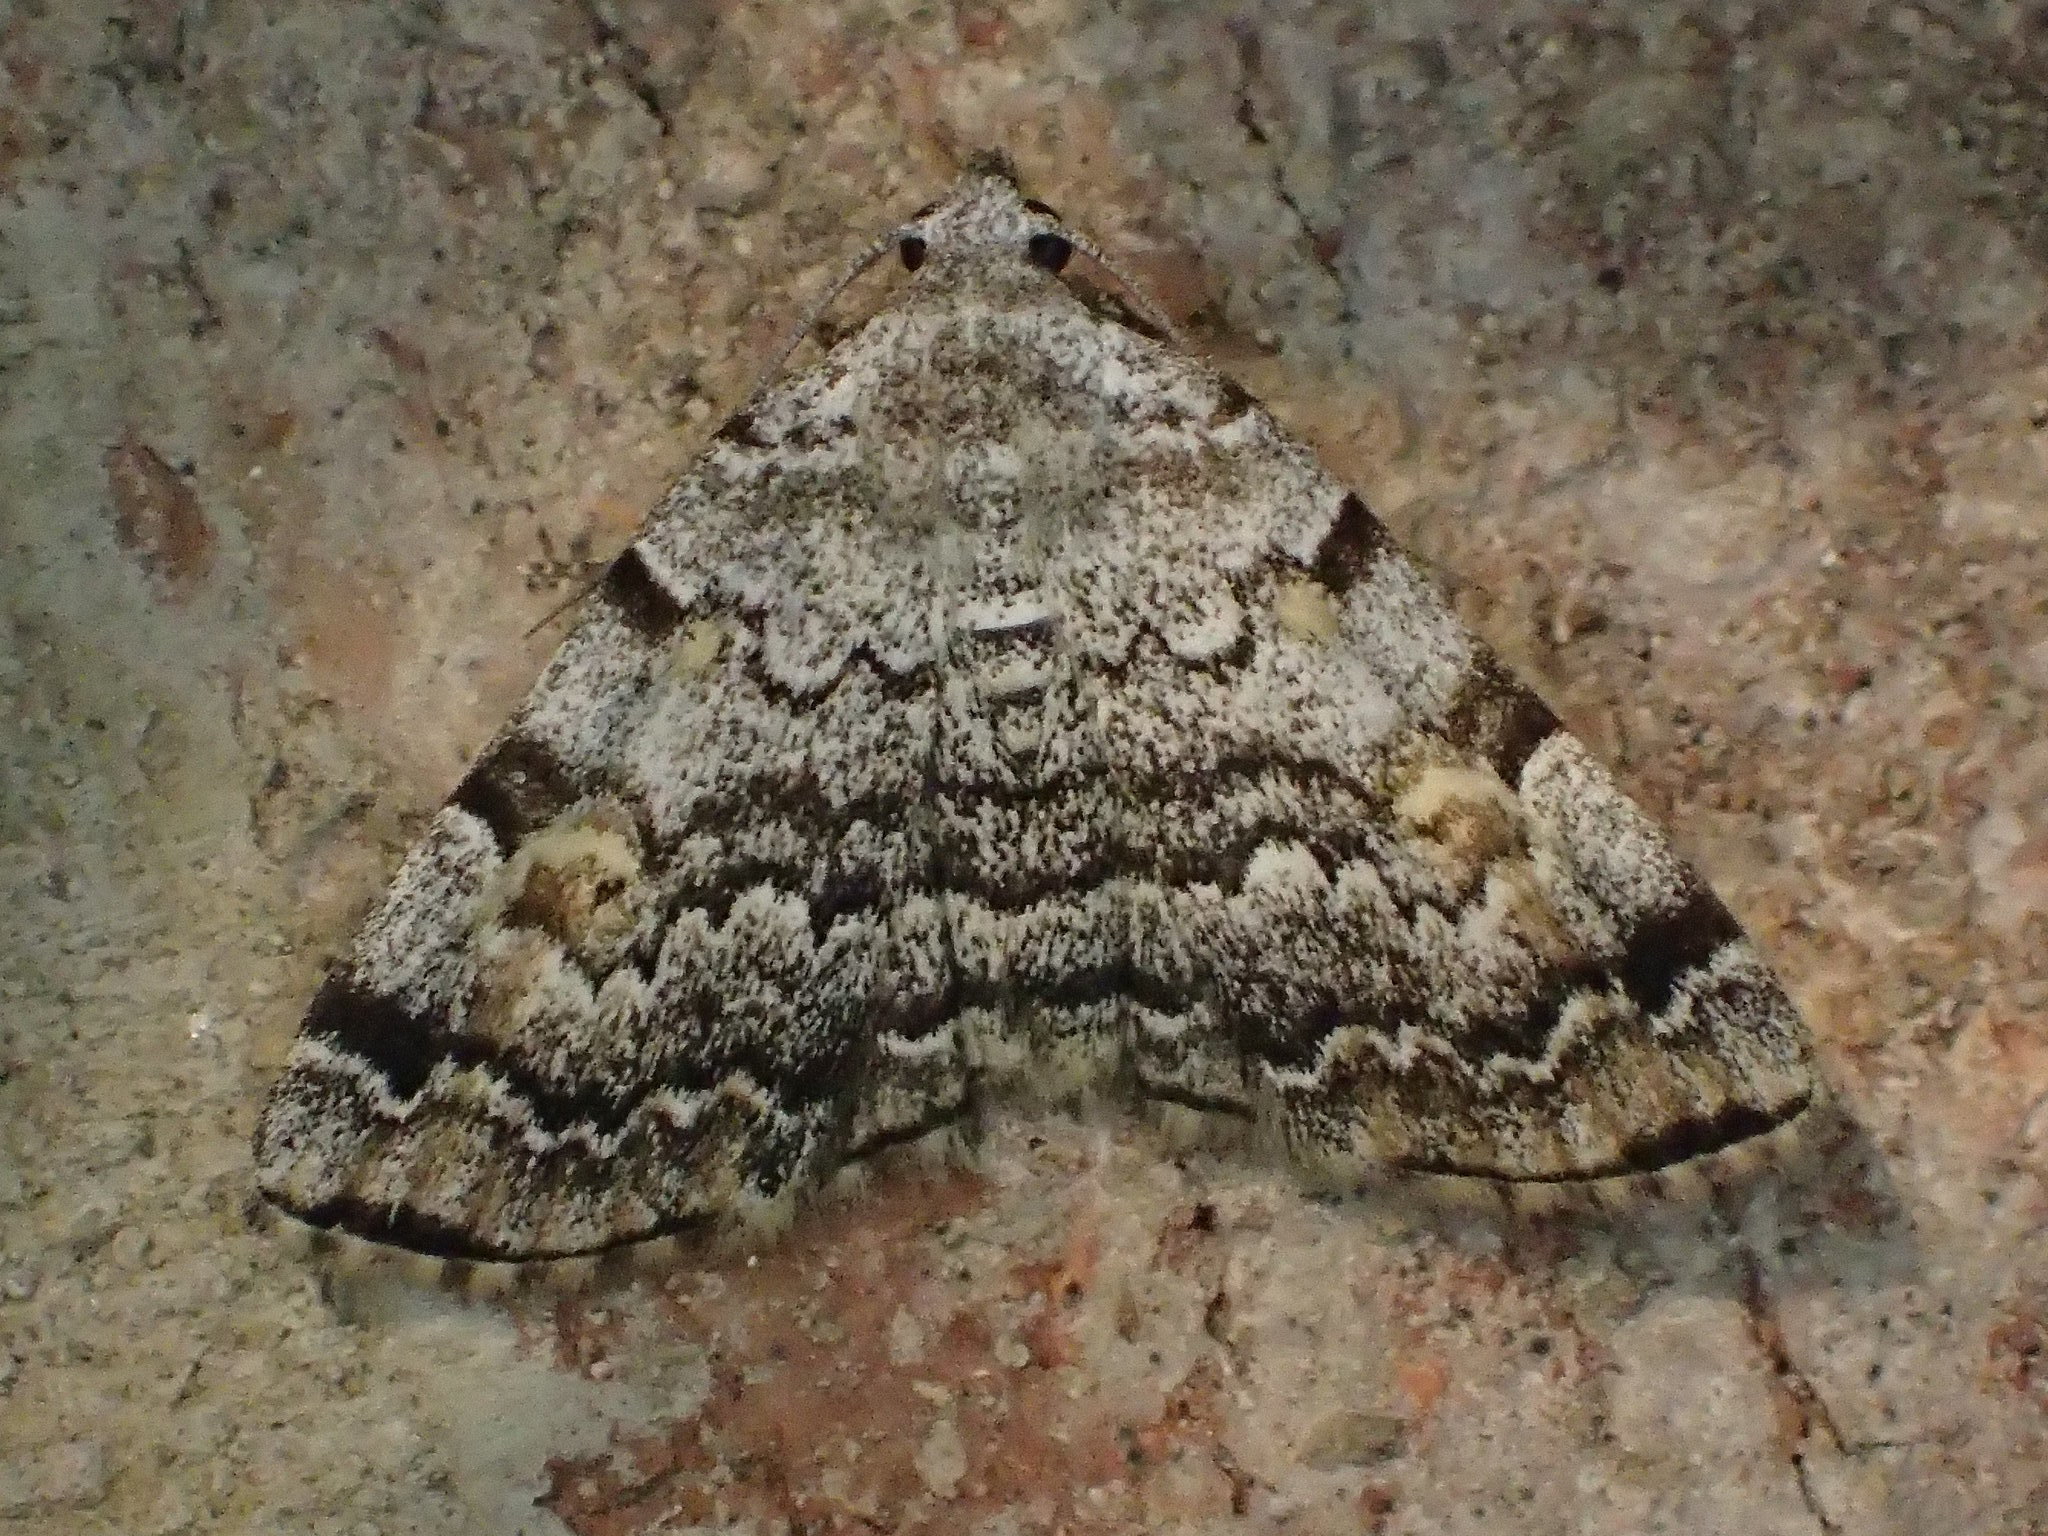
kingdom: Animalia
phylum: Arthropoda
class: Insecta
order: Lepidoptera
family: Erebidae
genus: Idia
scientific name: Idia americalis
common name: American idia moth
